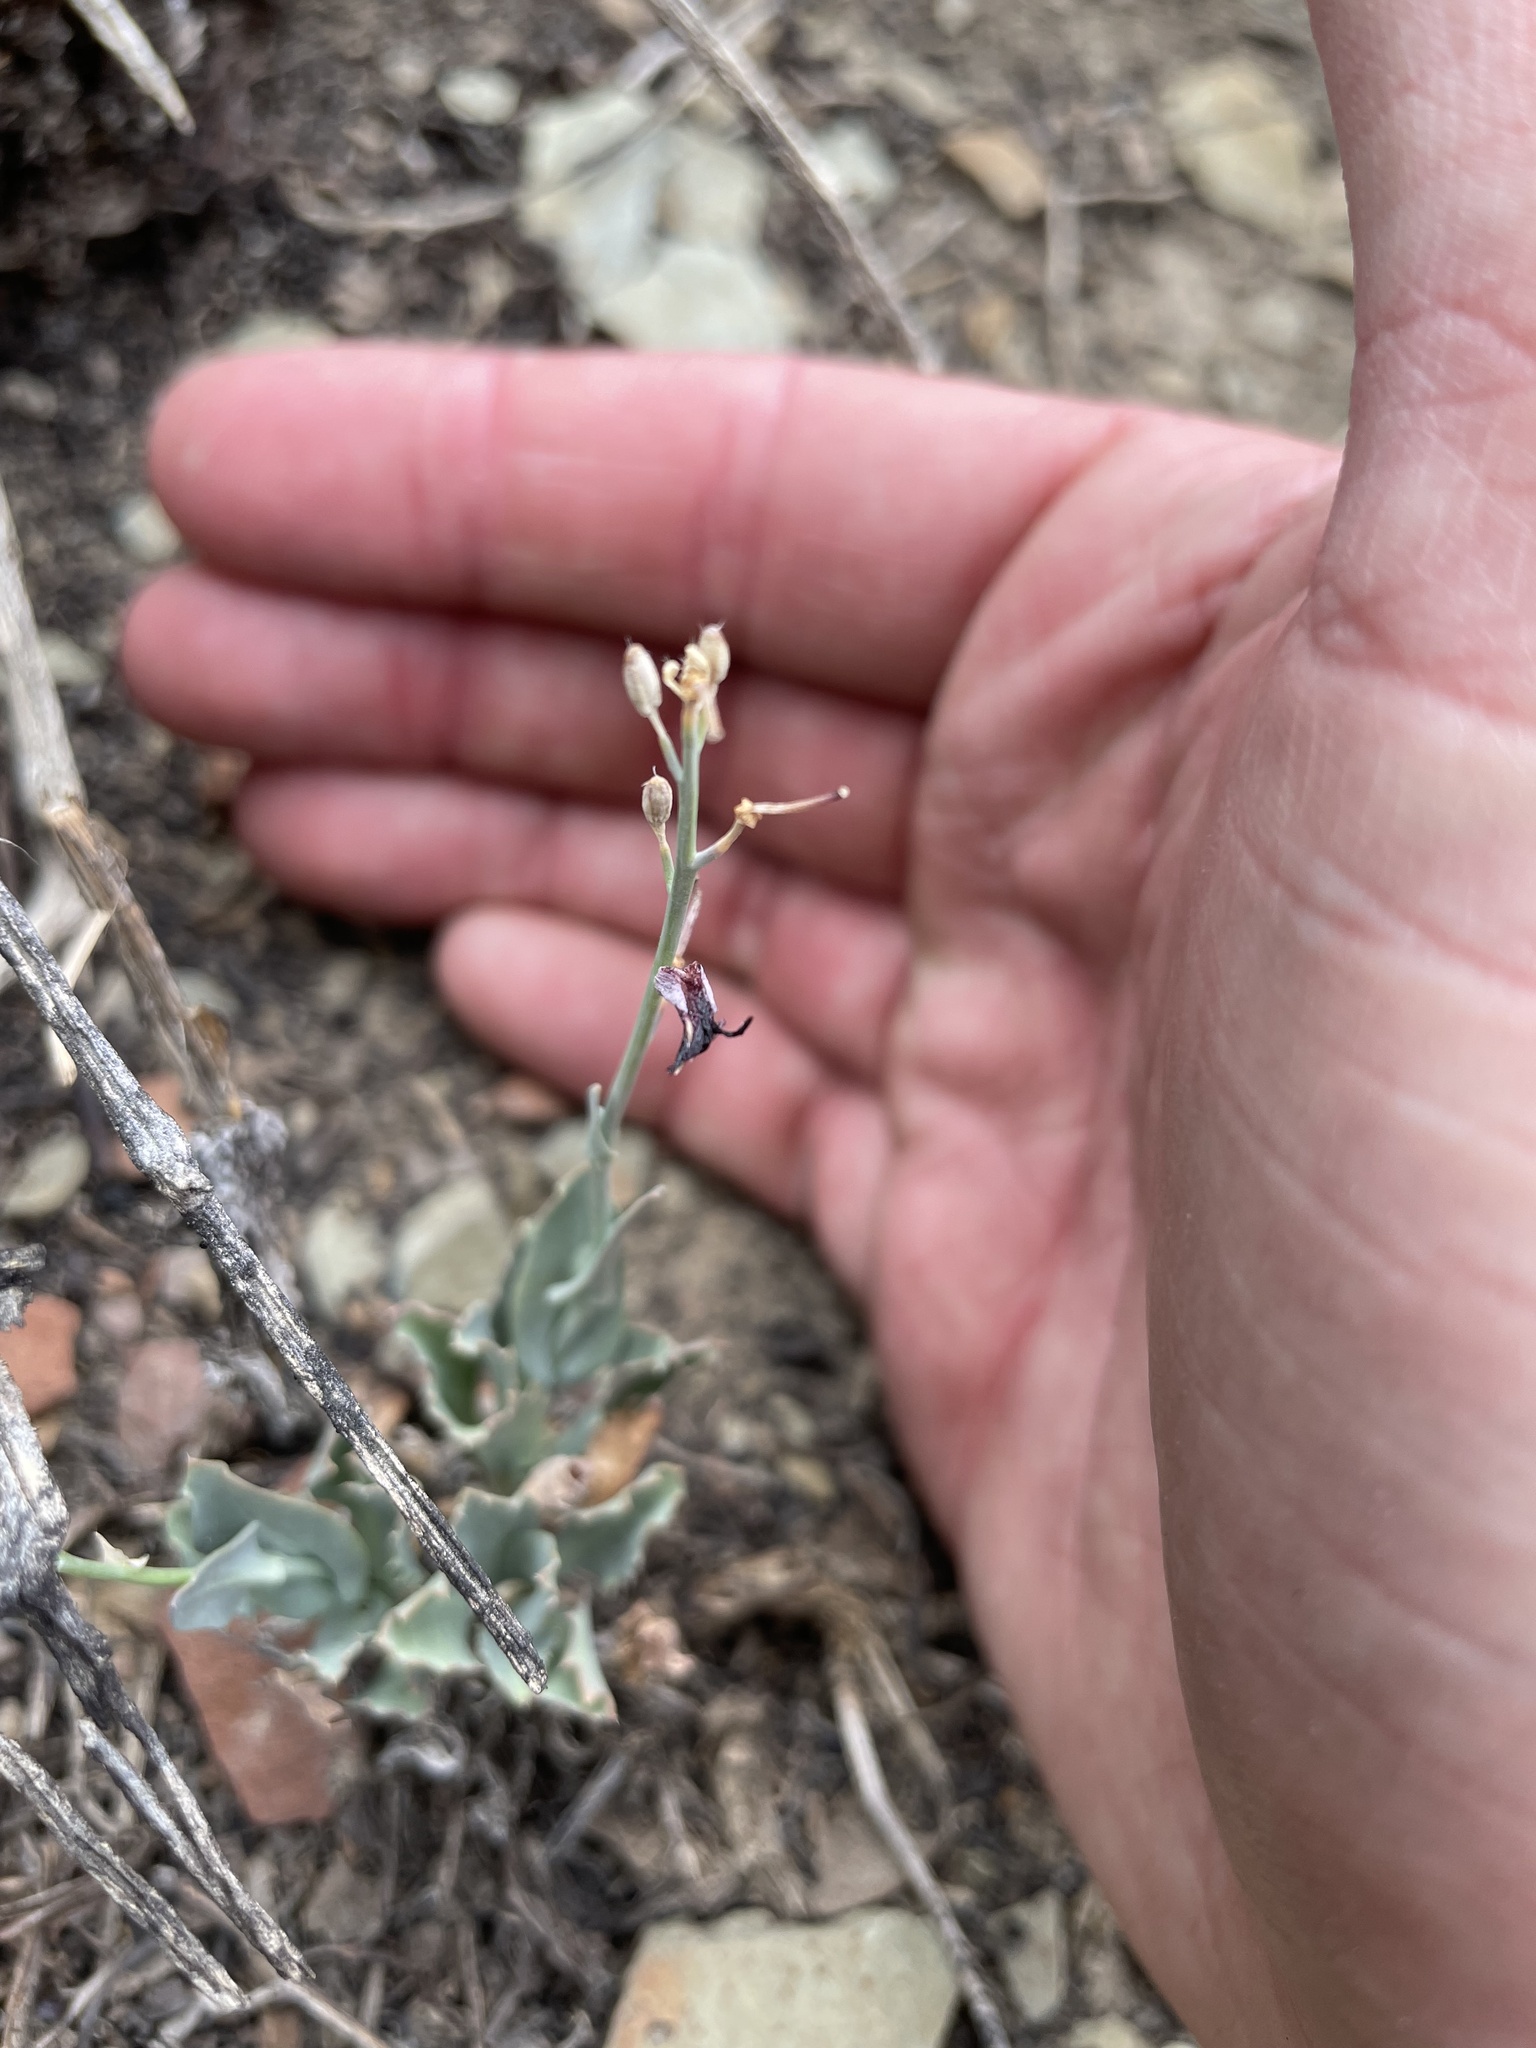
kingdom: Plantae
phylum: Tracheophyta
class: Magnoliopsida
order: Brassicales
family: Brassicaceae
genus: Streptanthus
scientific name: Streptanthus cordatus
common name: Heart-leaf jewel-flower
